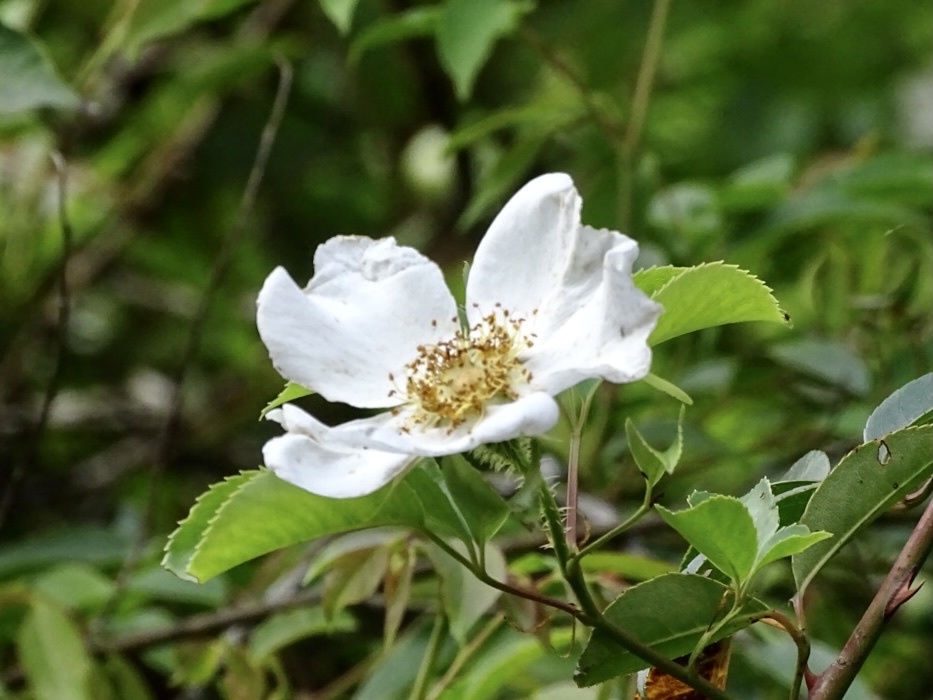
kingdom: Plantae
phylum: Tracheophyta
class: Magnoliopsida
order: Rosales
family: Rosaceae
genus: Rosa
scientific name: Rosa laevigata
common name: Cherokee rose
